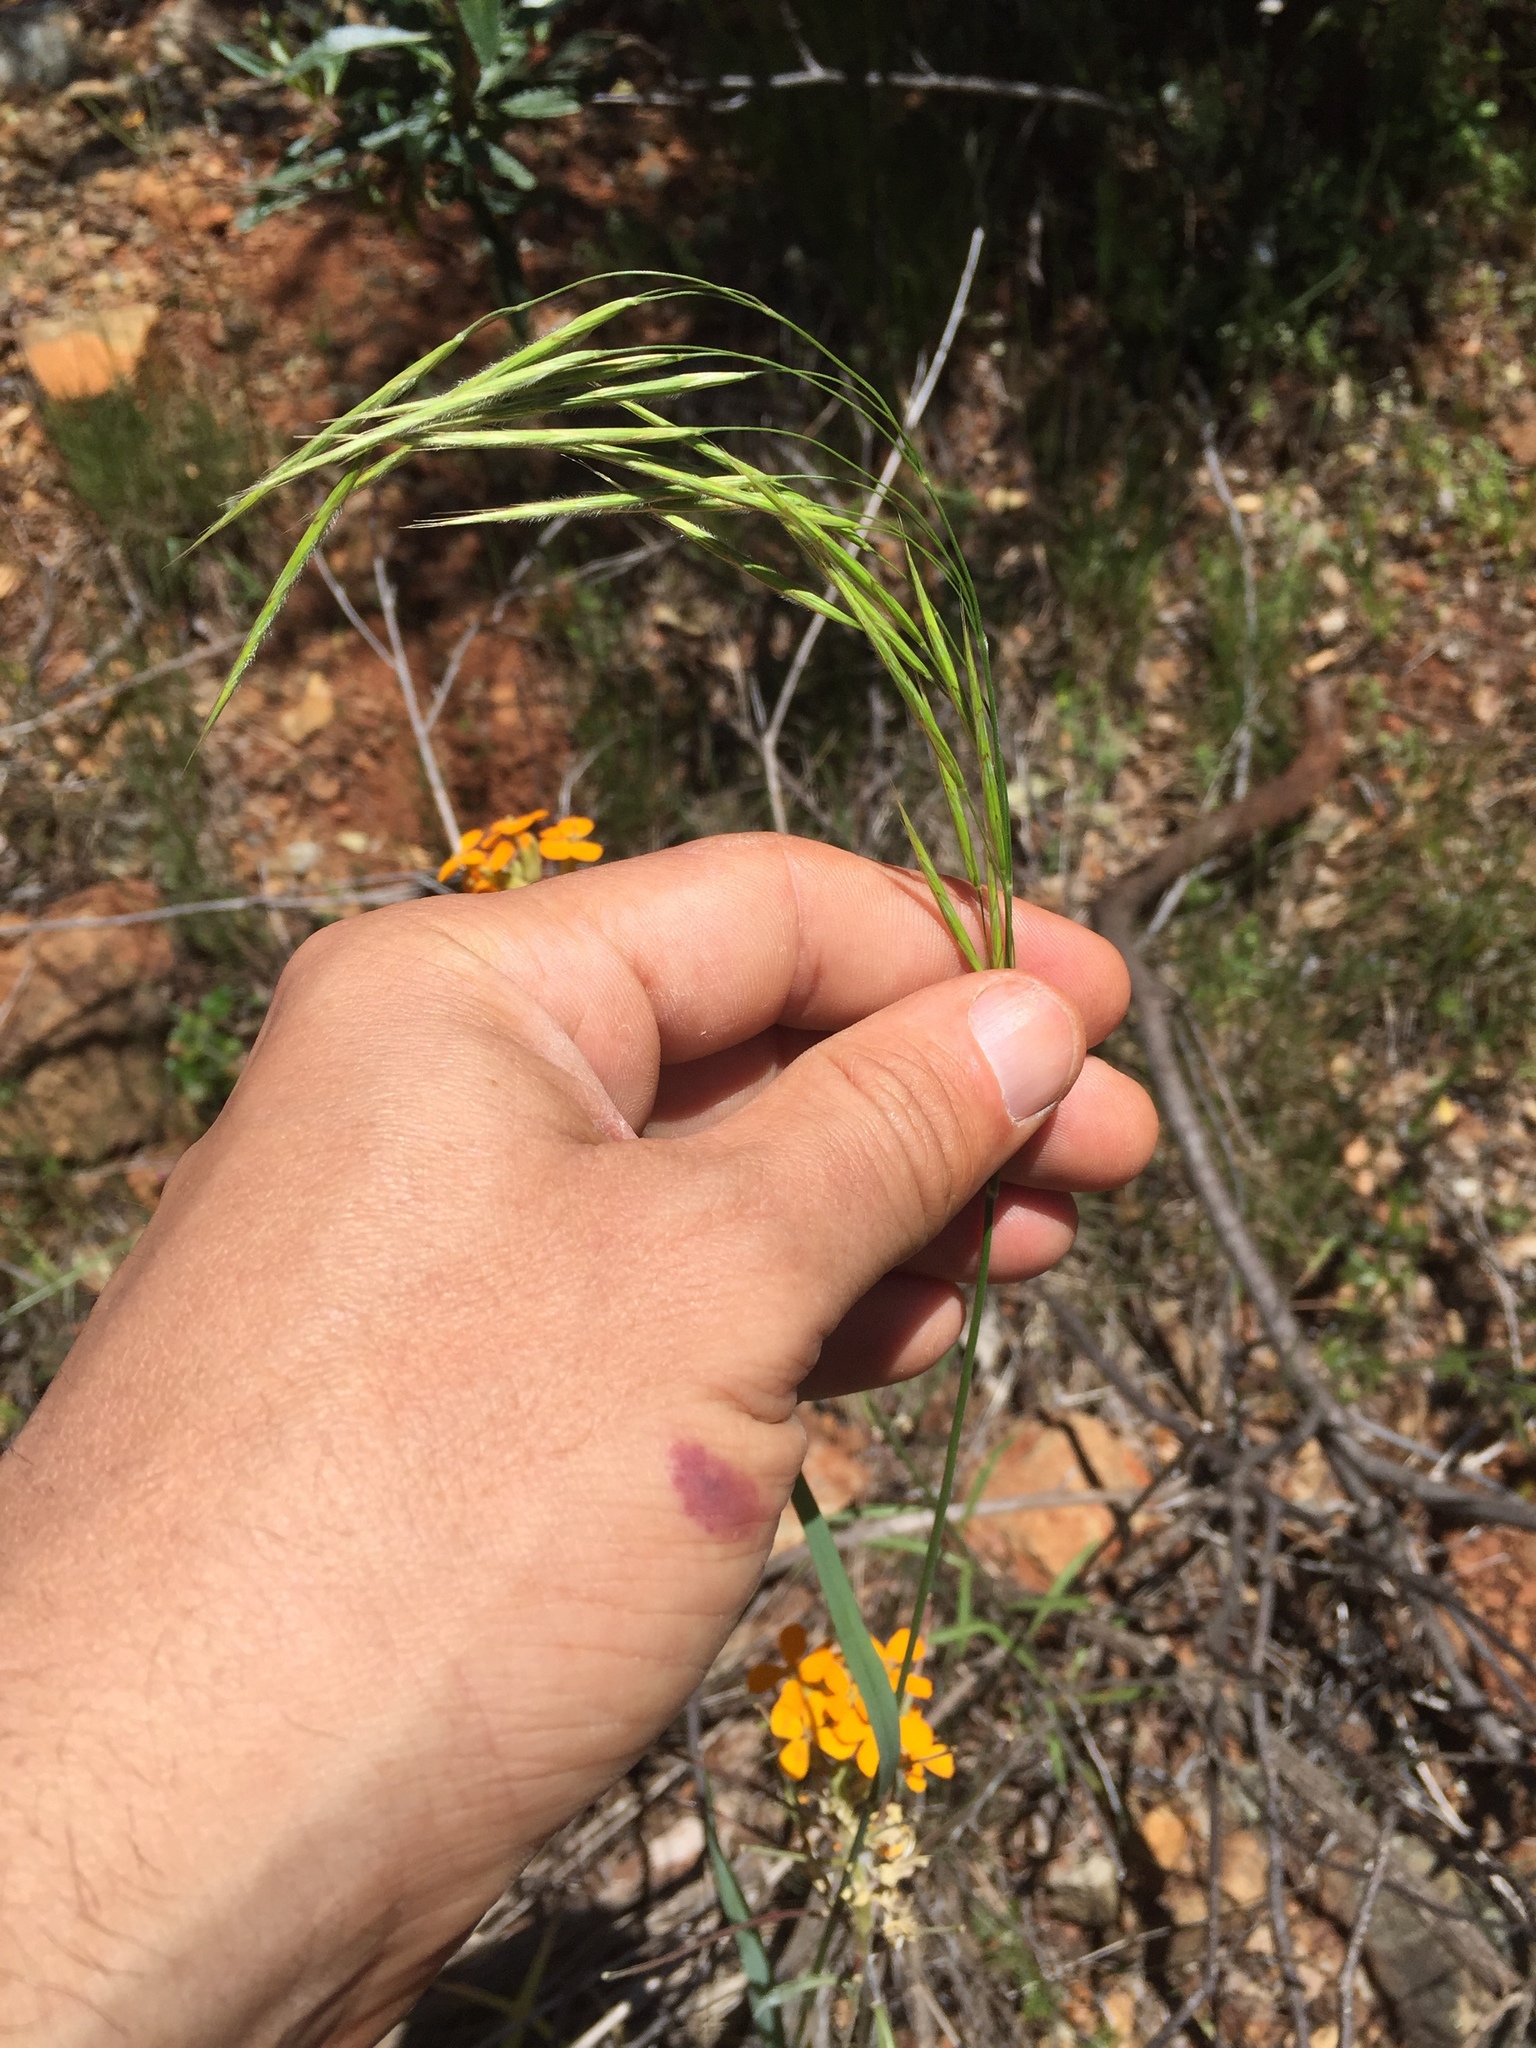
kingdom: Plantae
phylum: Tracheophyta
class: Liliopsida
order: Poales
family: Poaceae
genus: Bromus
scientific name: Bromus laevipes
